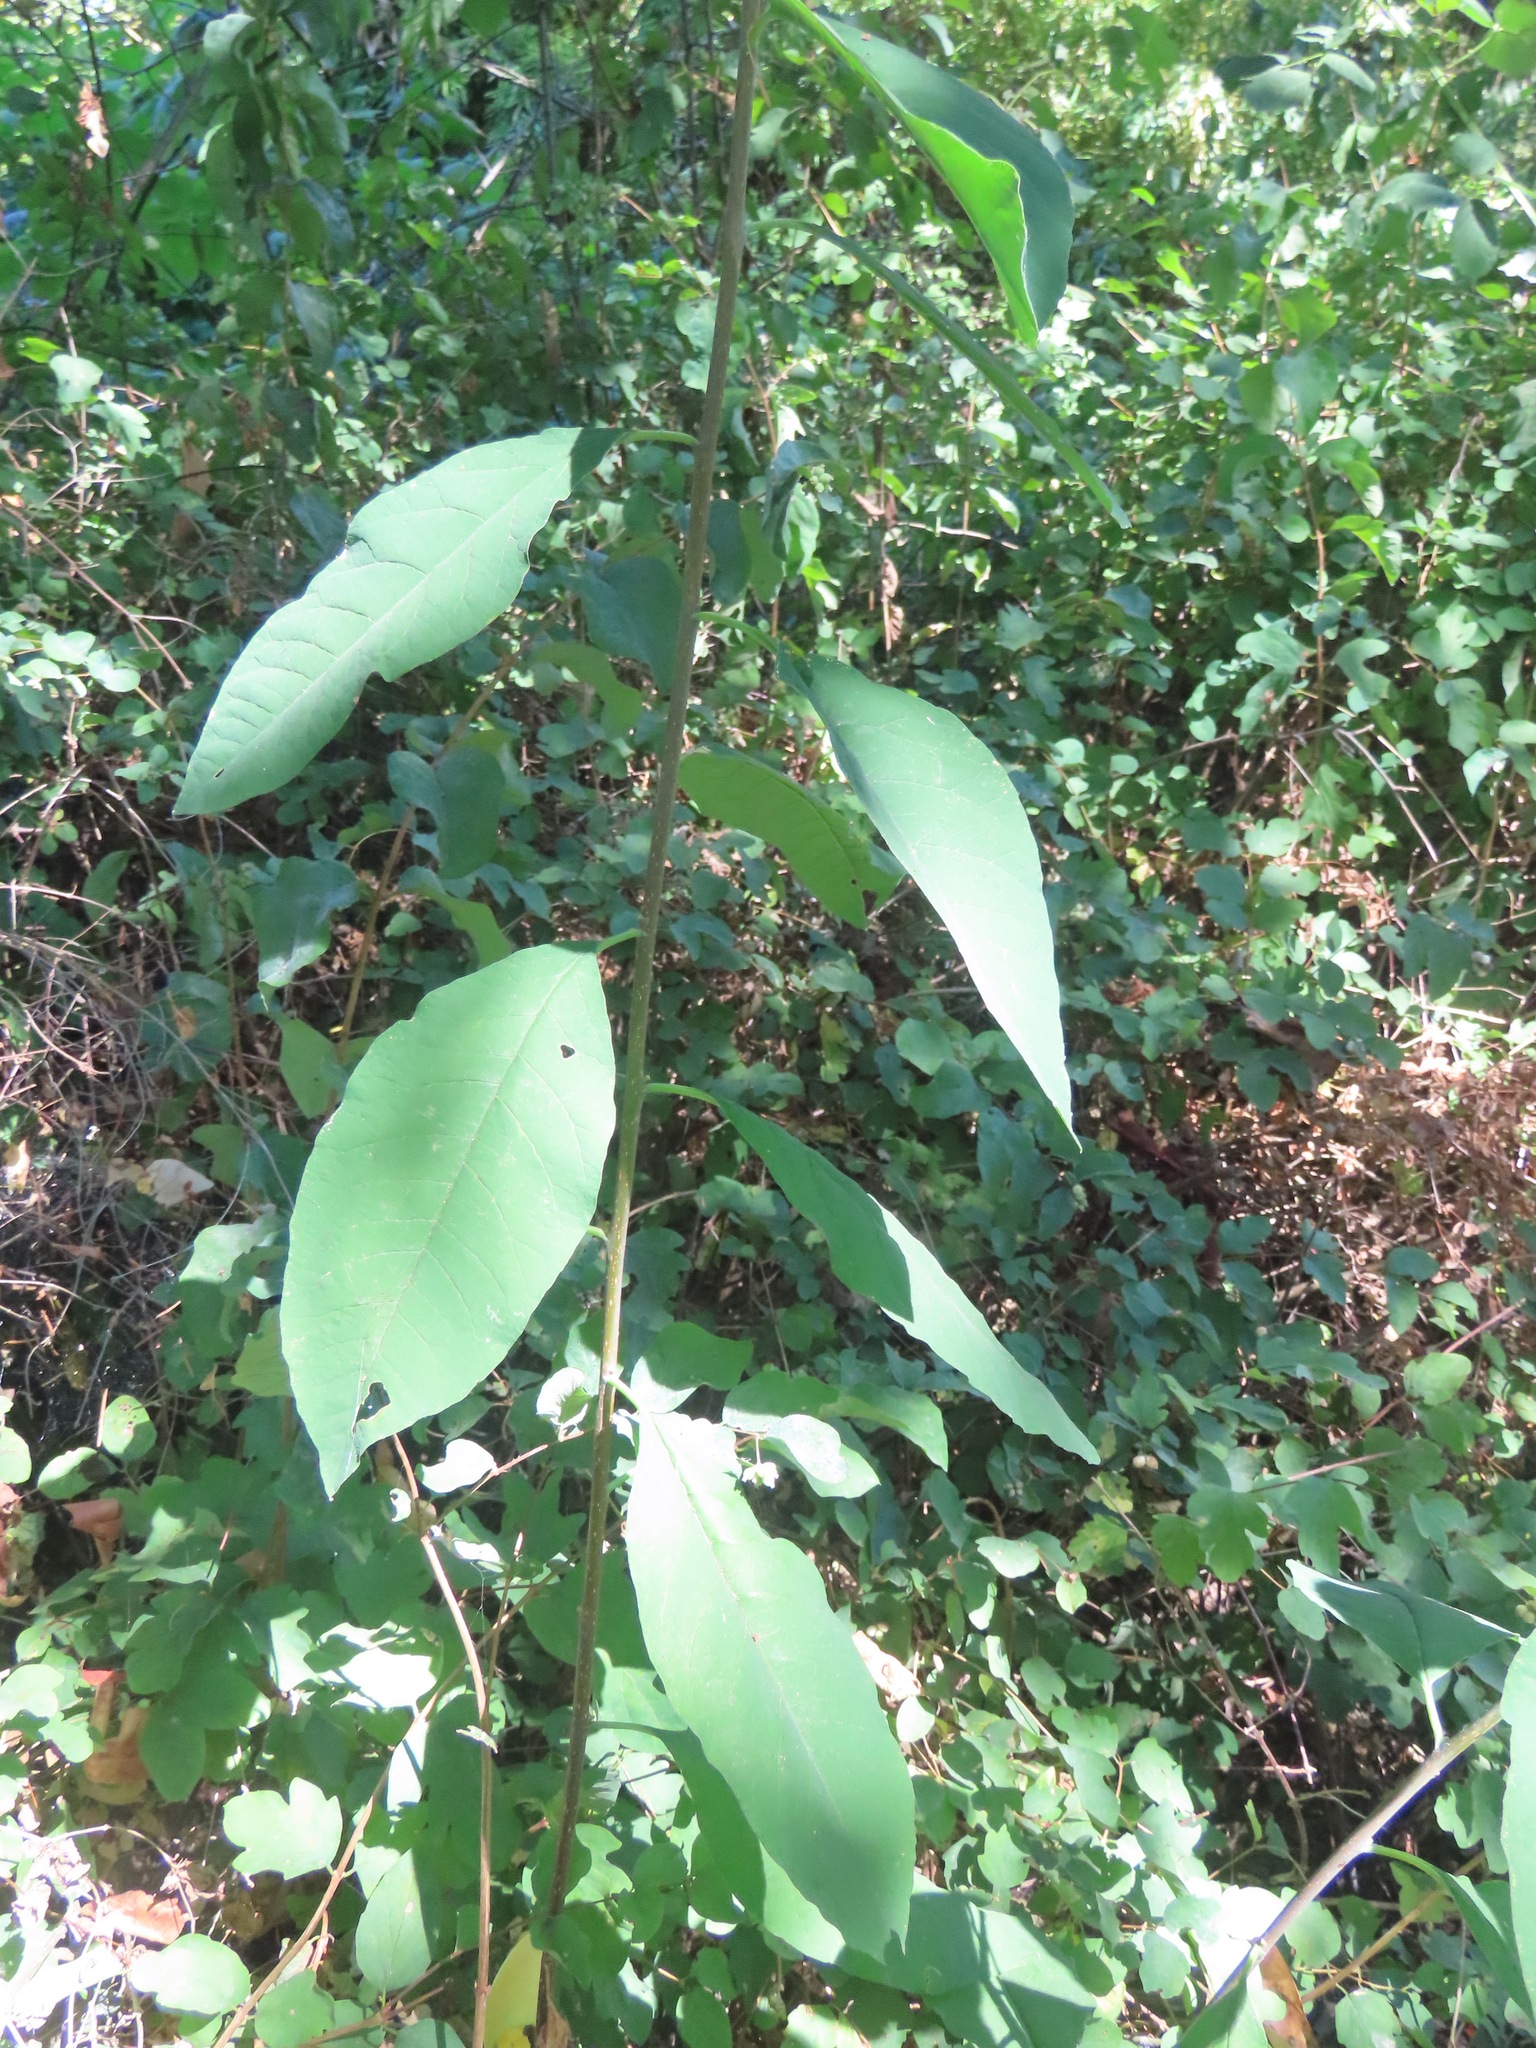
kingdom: Plantae
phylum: Tracheophyta
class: Magnoliopsida
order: Rosales
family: Rosaceae
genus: Oemleria
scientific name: Oemleria cerasiformis
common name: Osoberry
